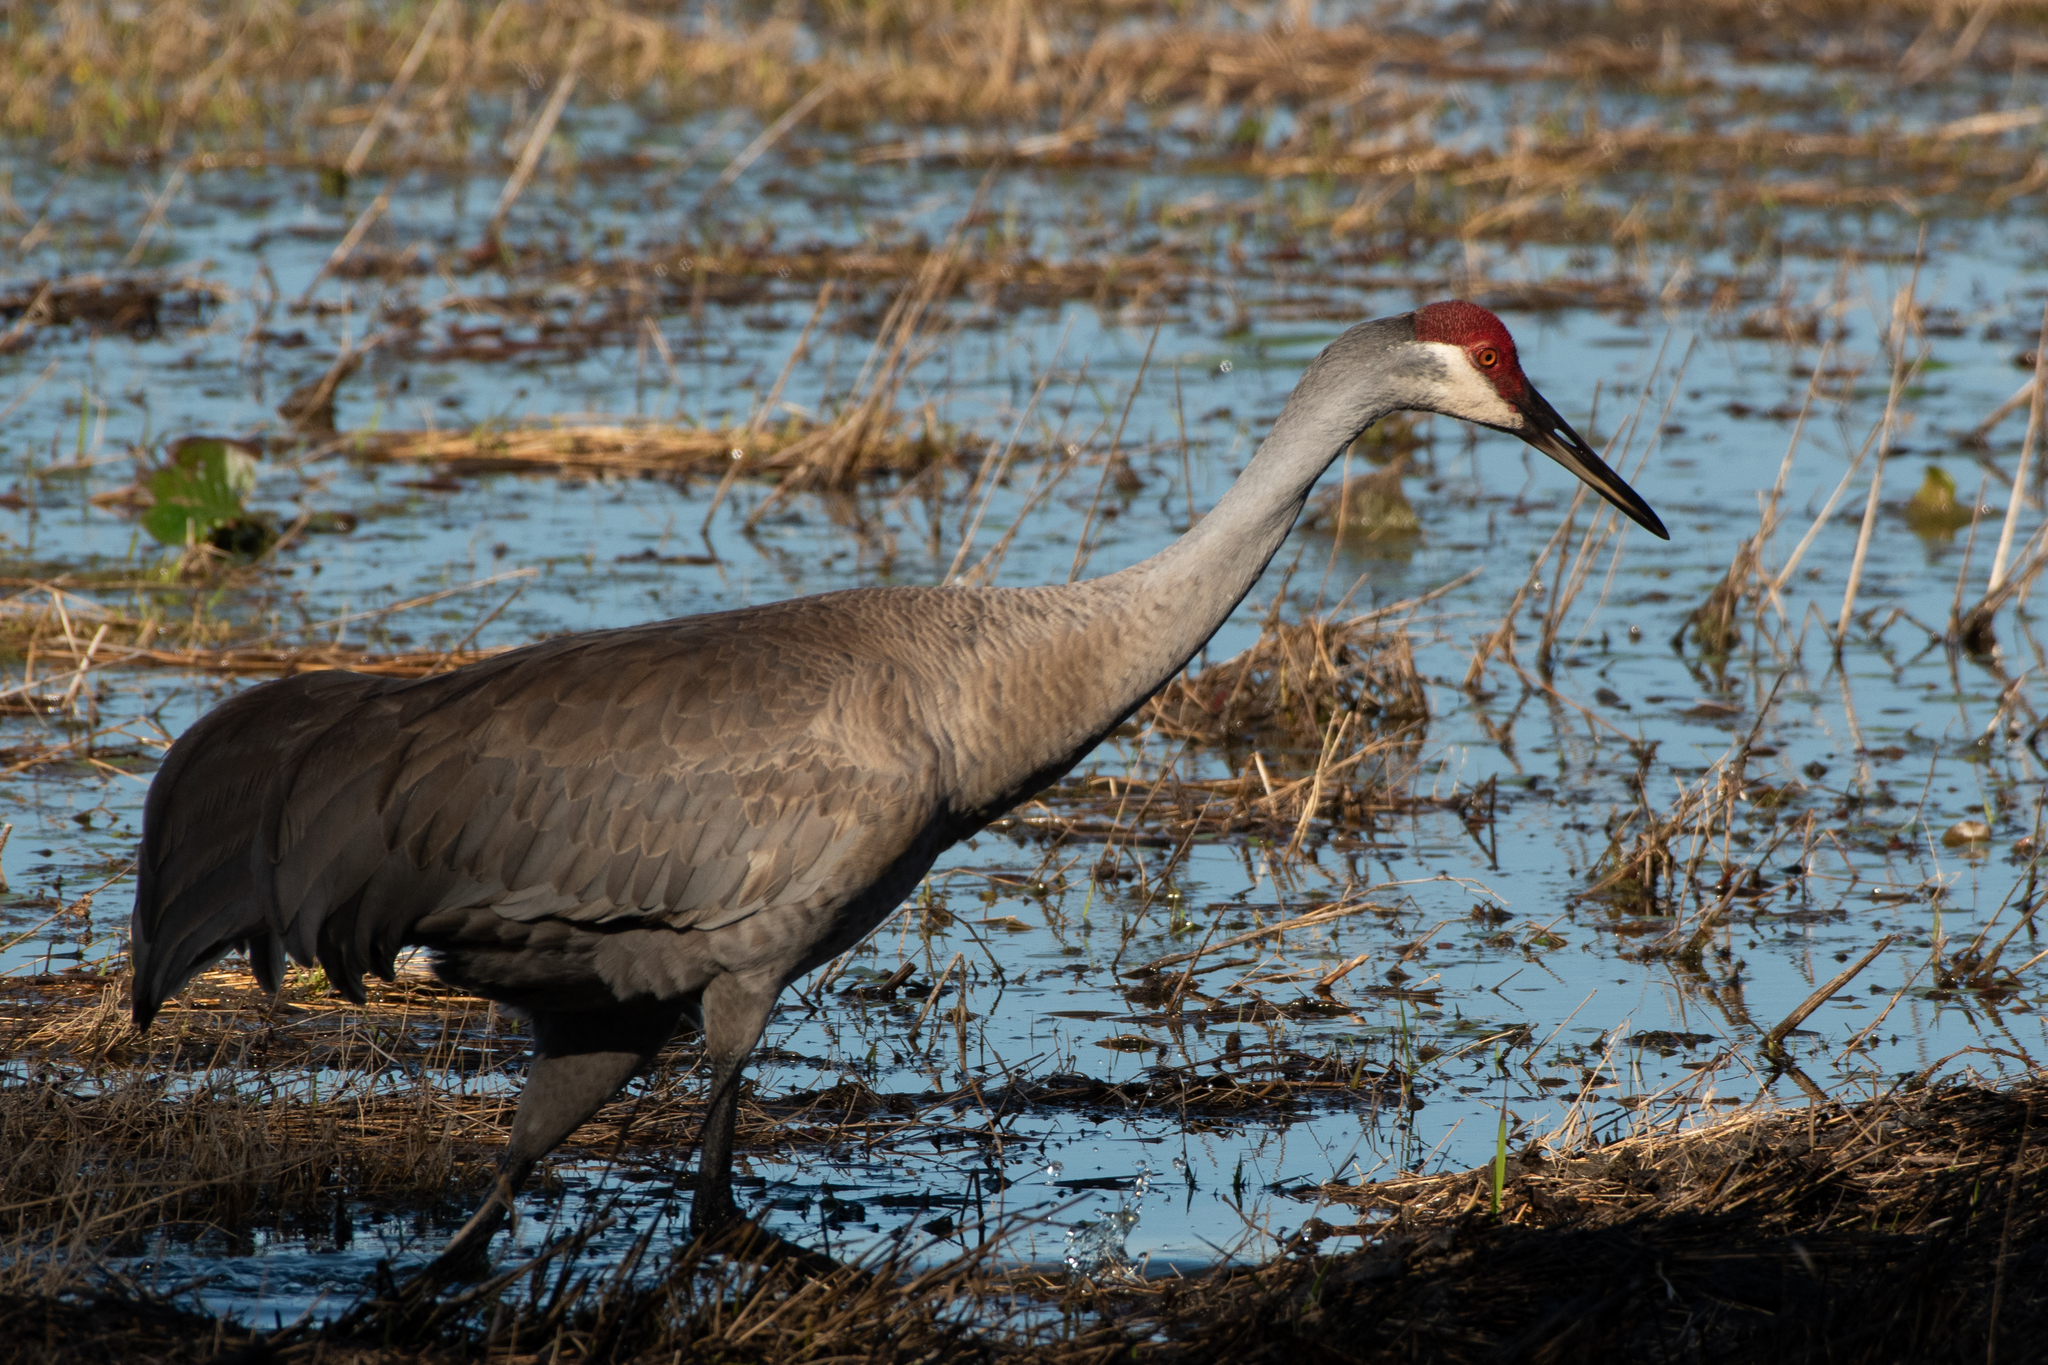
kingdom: Animalia
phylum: Chordata
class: Aves
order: Gruiformes
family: Gruidae
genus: Grus
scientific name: Grus canadensis
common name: Sandhill crane
